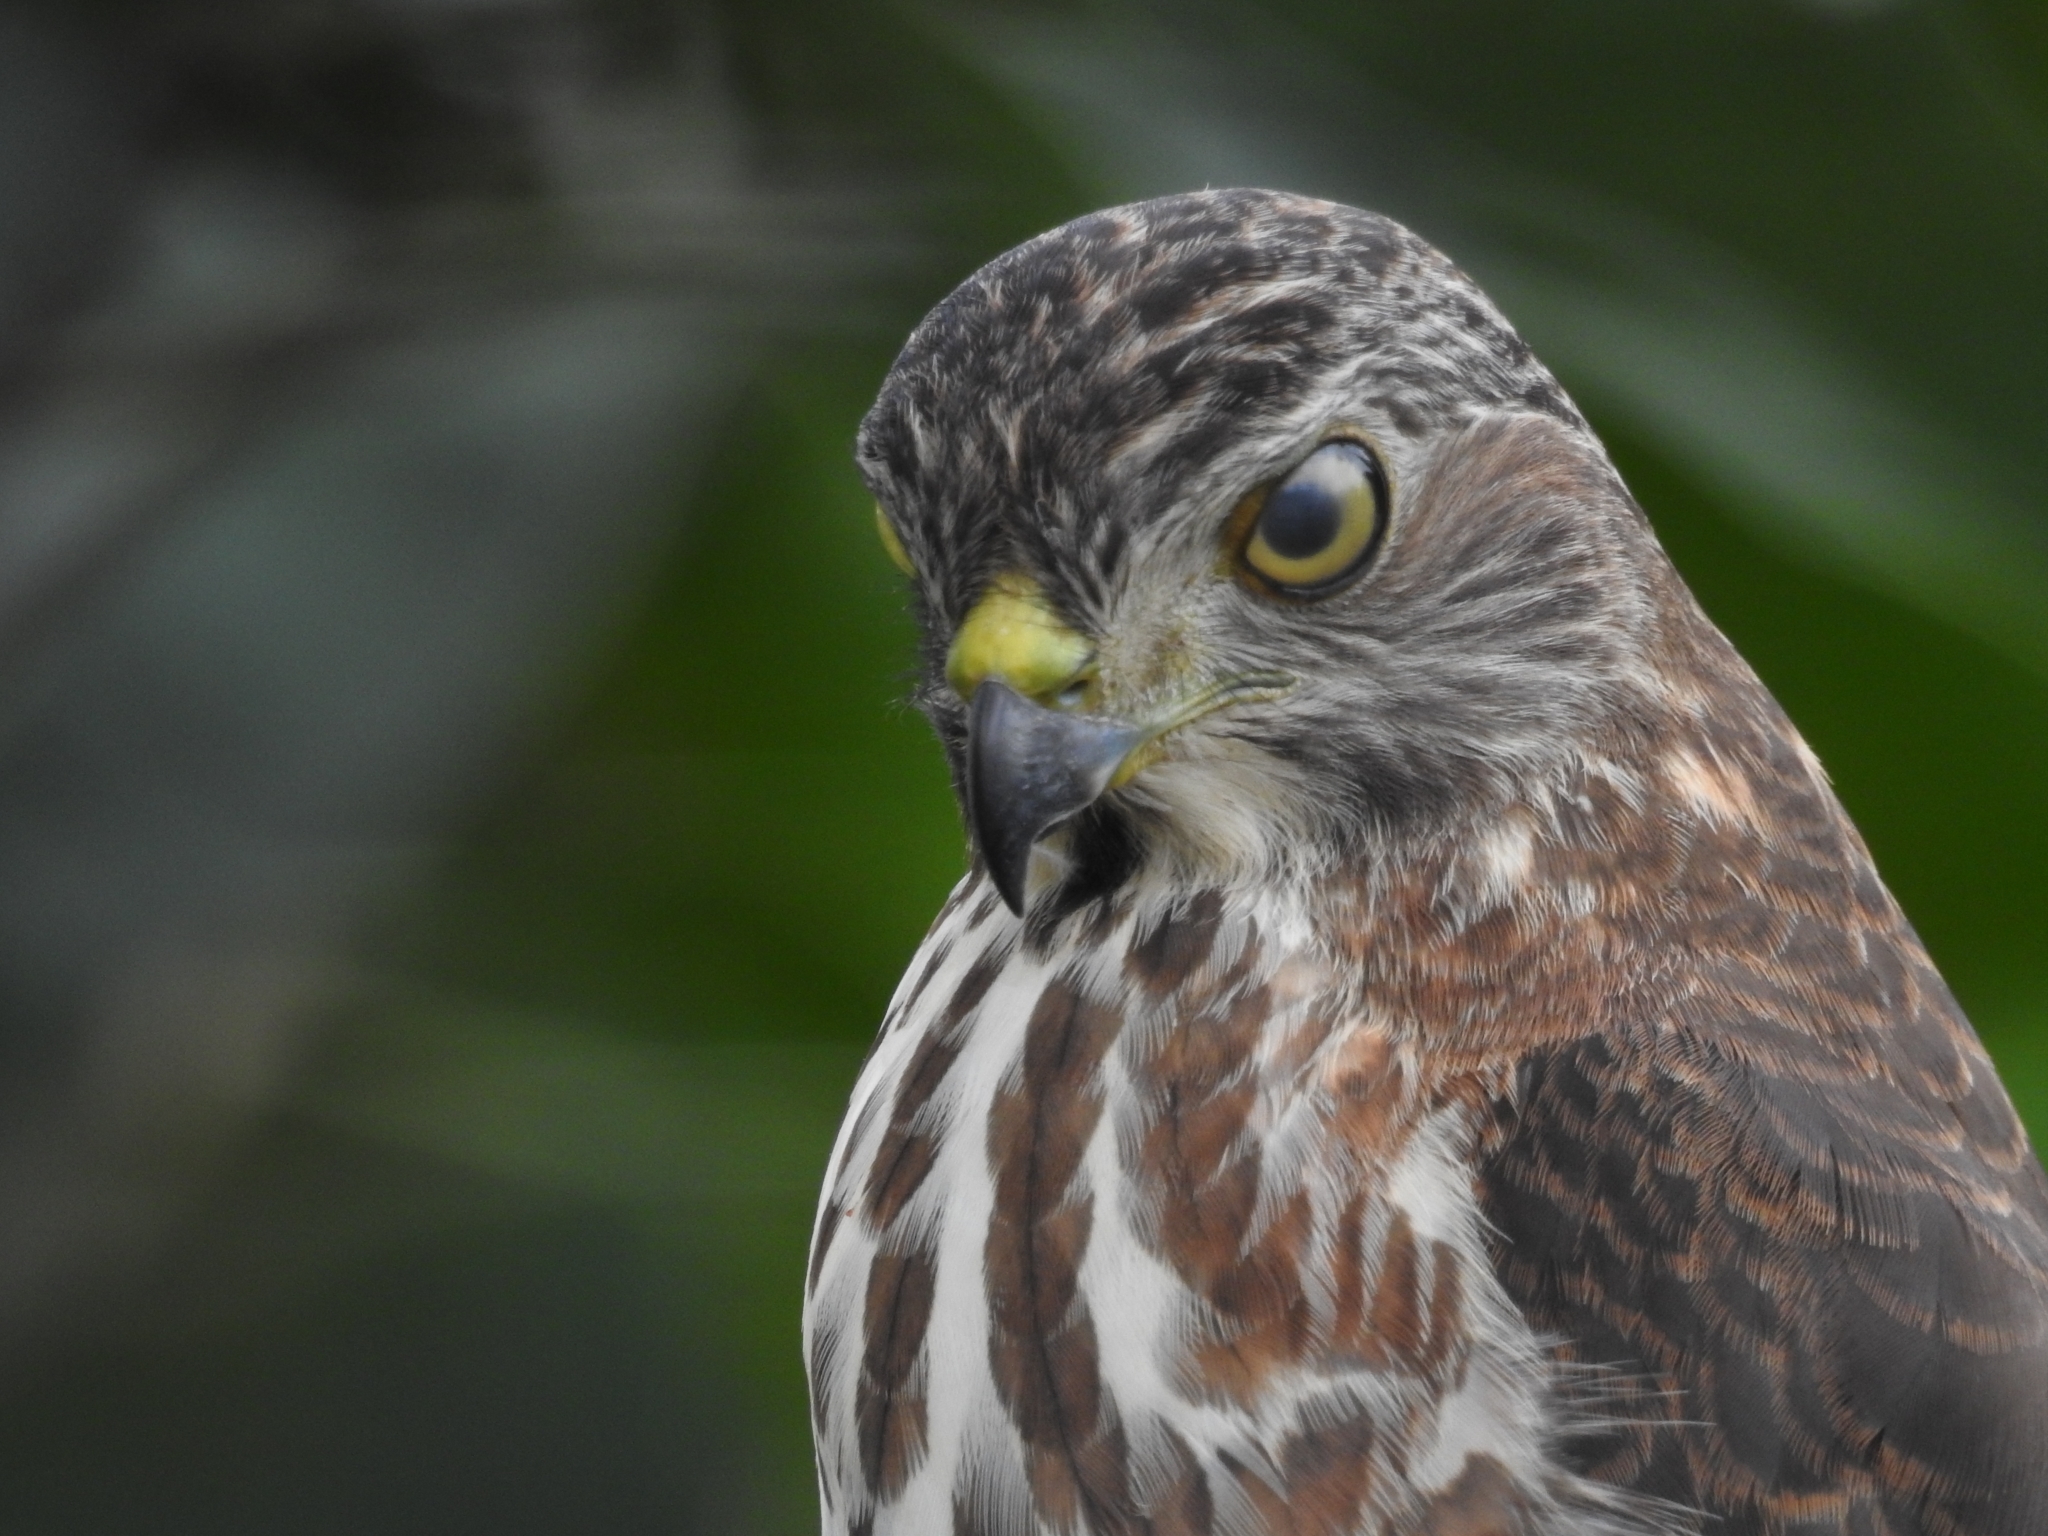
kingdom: Animalia
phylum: Chordata
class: Aves
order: Accipitriformes
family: Accipitridae
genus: Accipiter
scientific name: Accipiter badius
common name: Shikra
